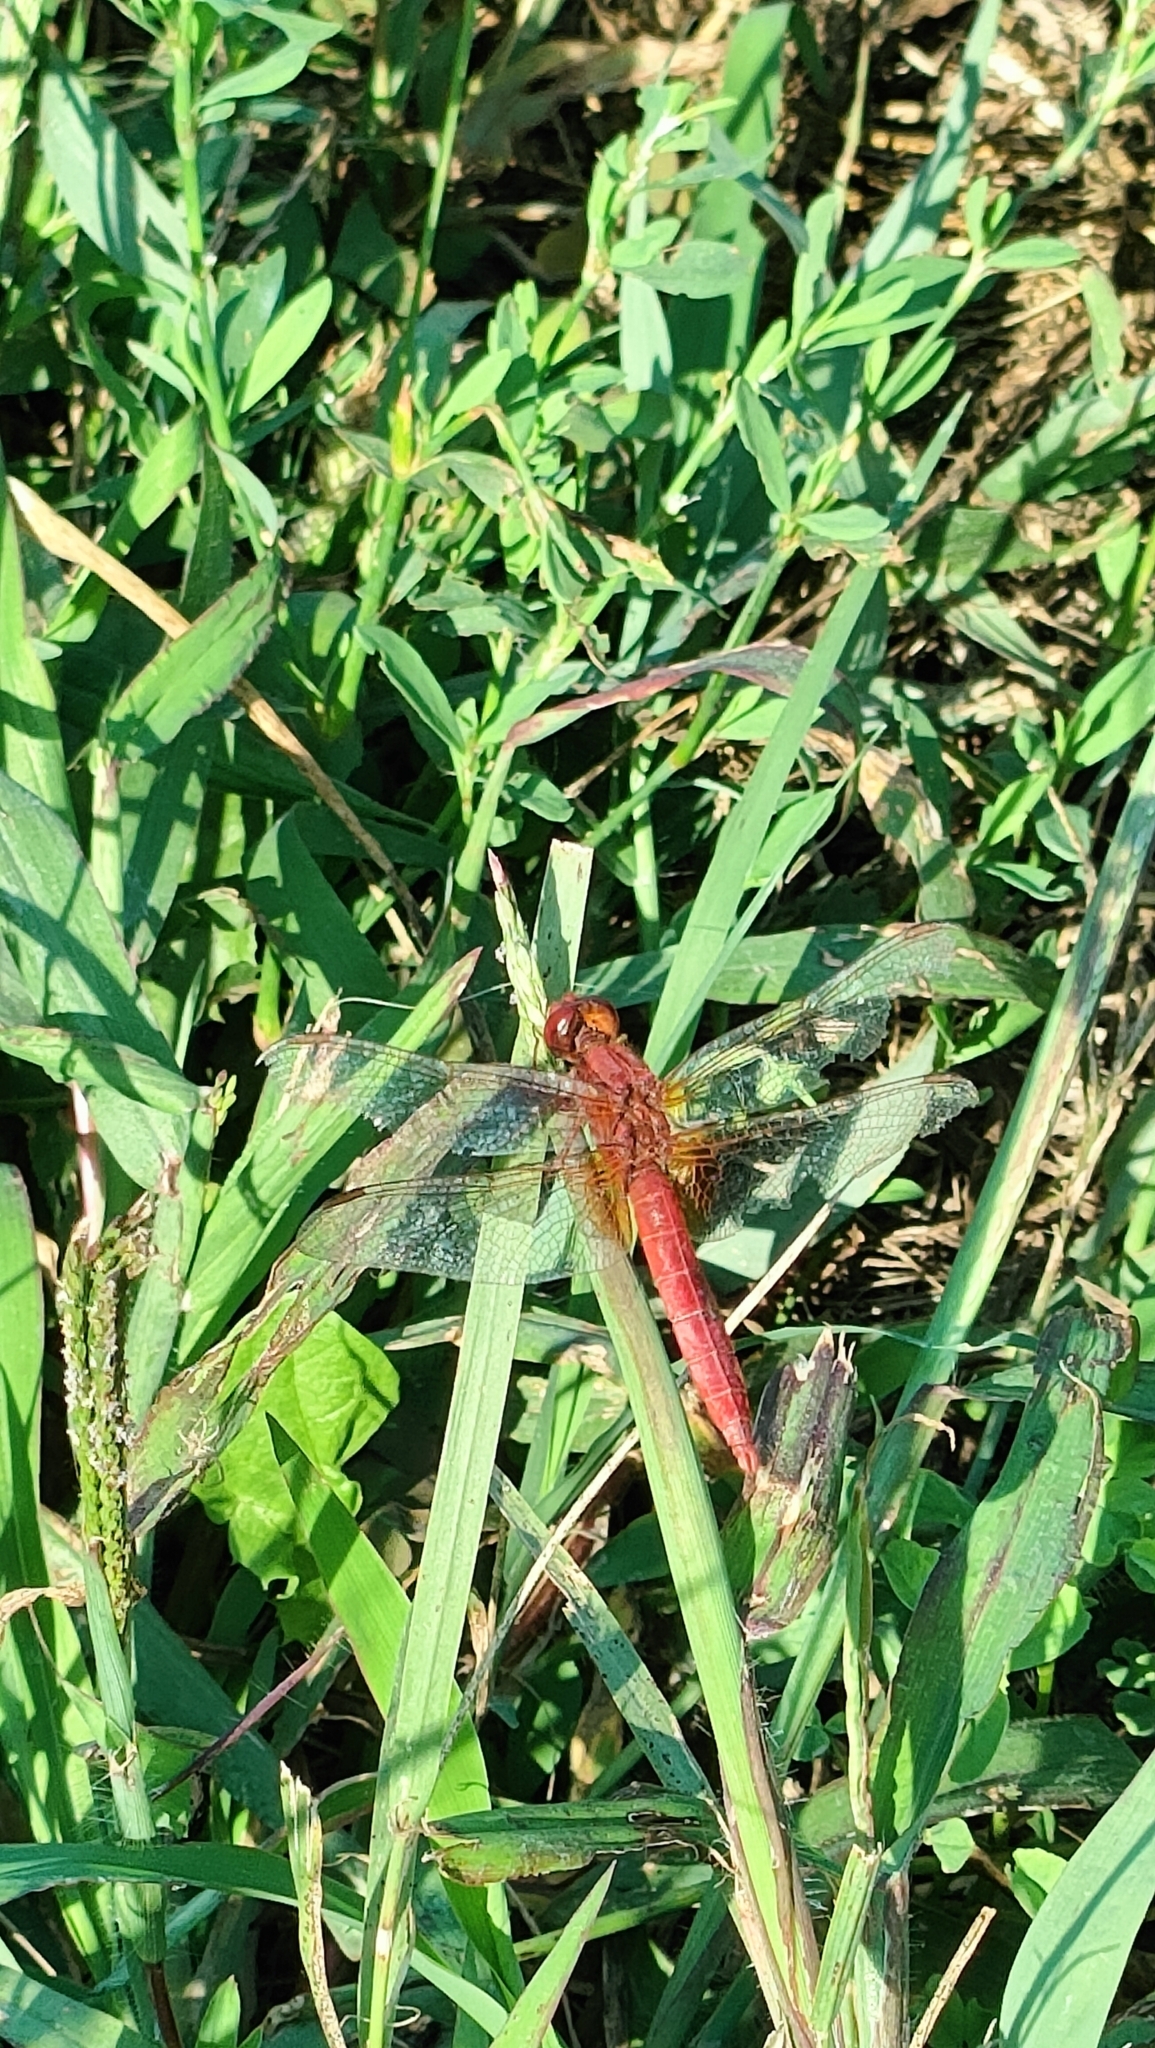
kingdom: Animalia
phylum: Arthropoda
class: Insecta
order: Odonata
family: Libellulidae
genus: Crocothemis
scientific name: Crocothemis erythraea
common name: Scarlet dragonfly
